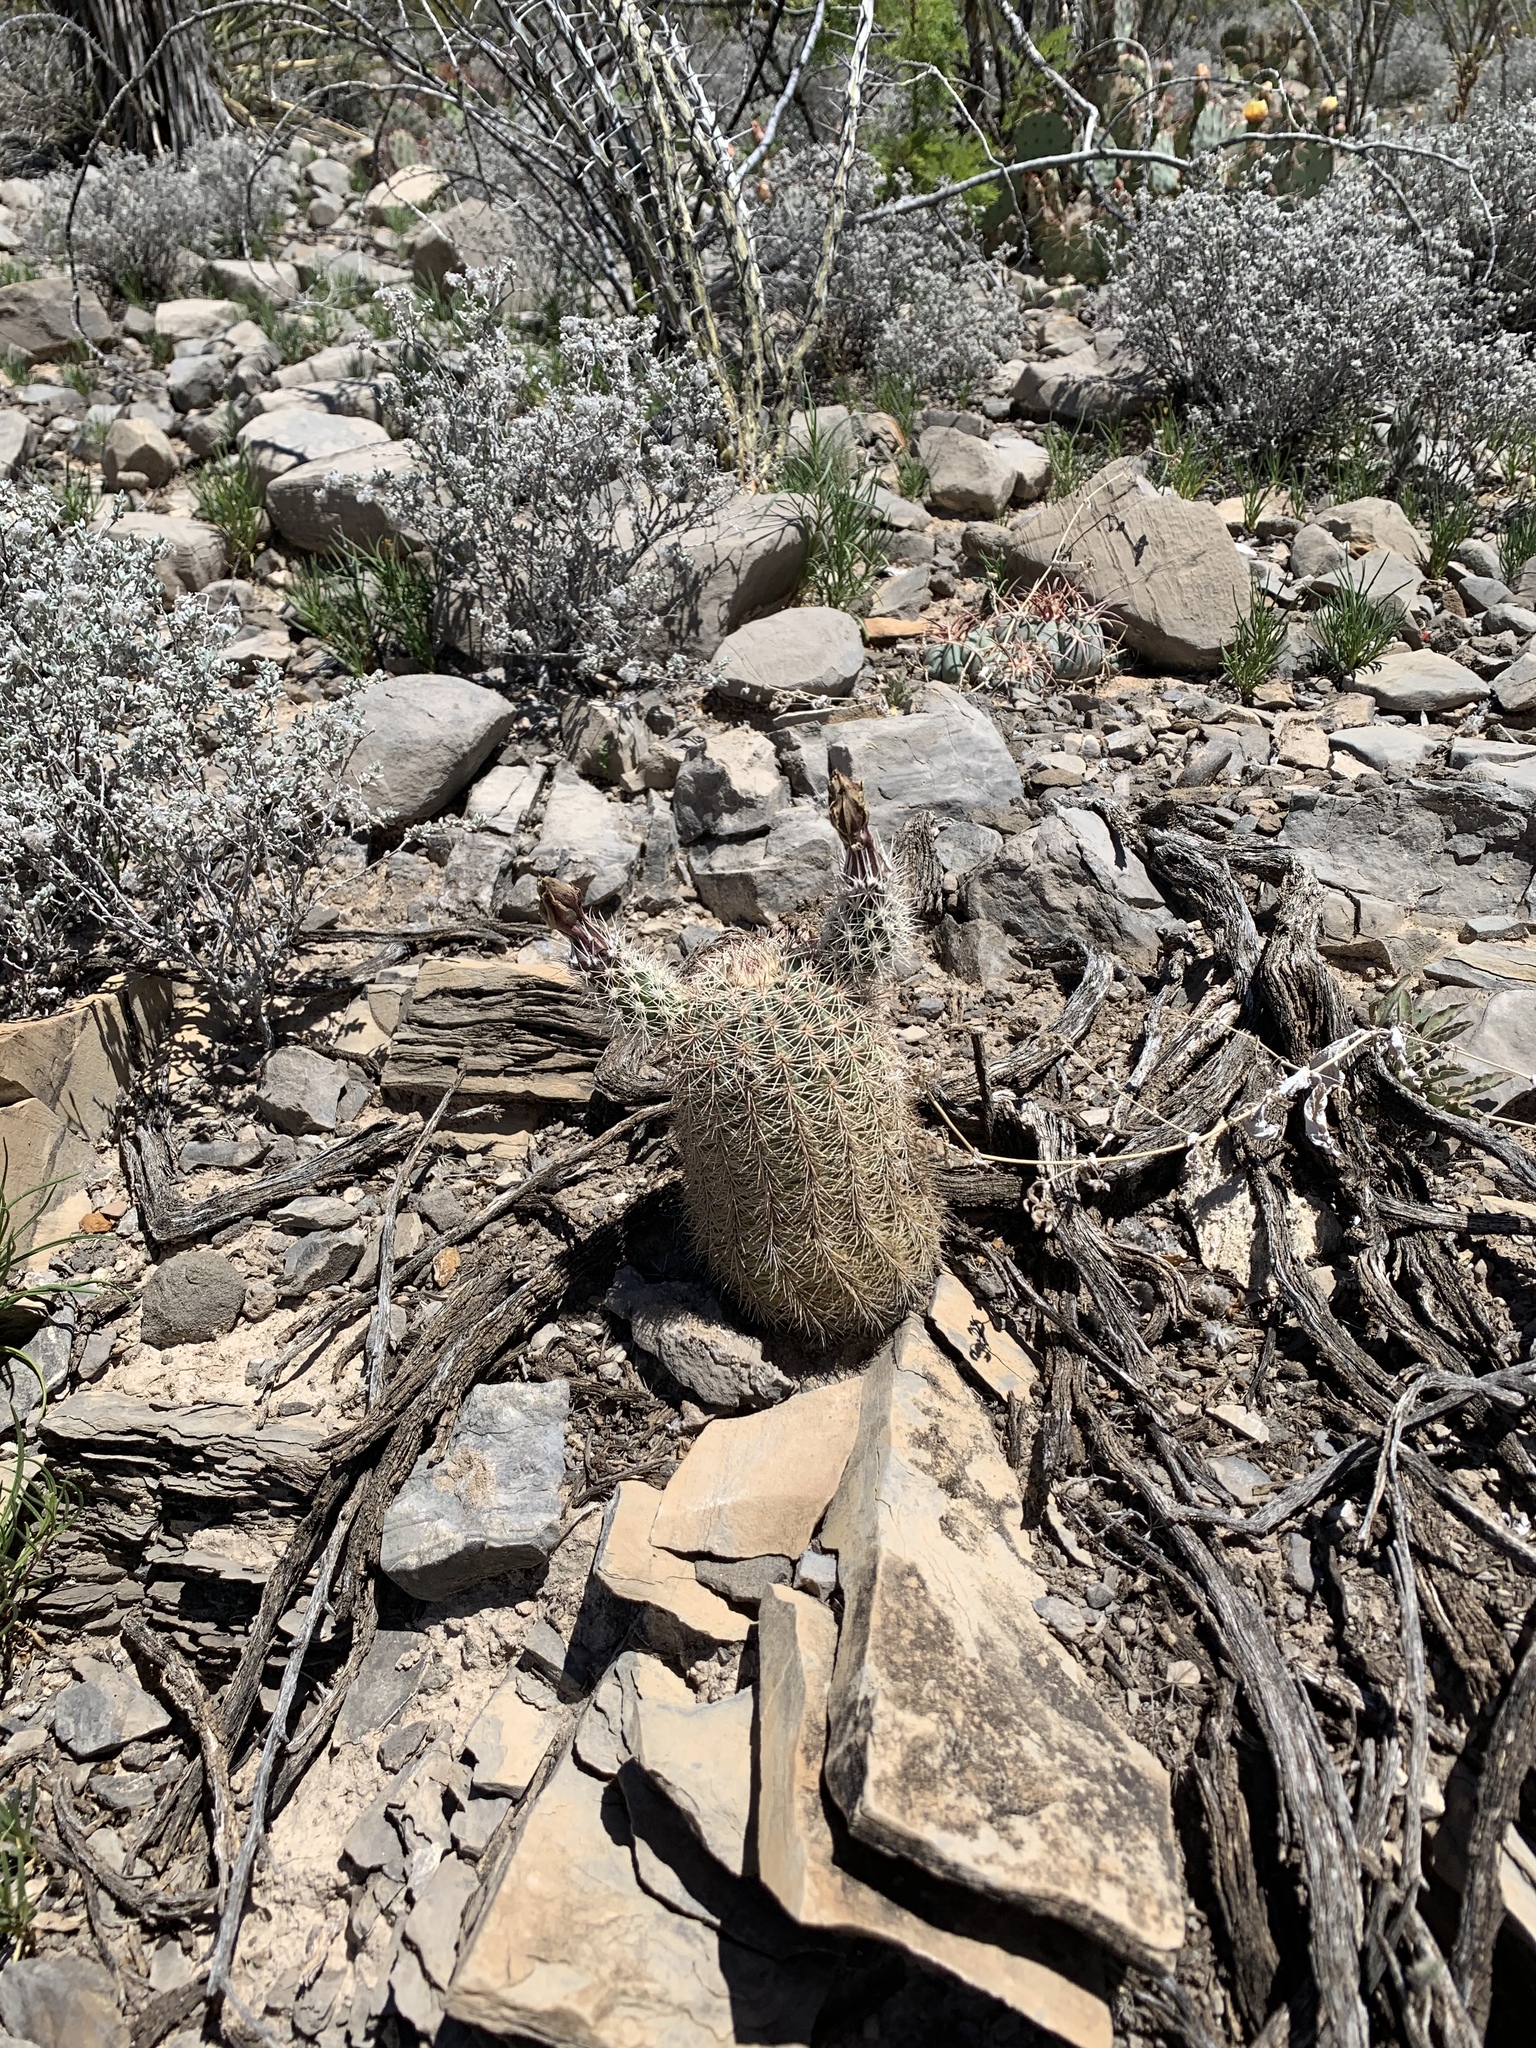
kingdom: Plantae
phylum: Tracheophyta
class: Magnoliopsida
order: Caryophyllales
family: Cactaceae
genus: Echinocereus
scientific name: Echinocereus dasyacanthus
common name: Spiny hedgehog cactus
